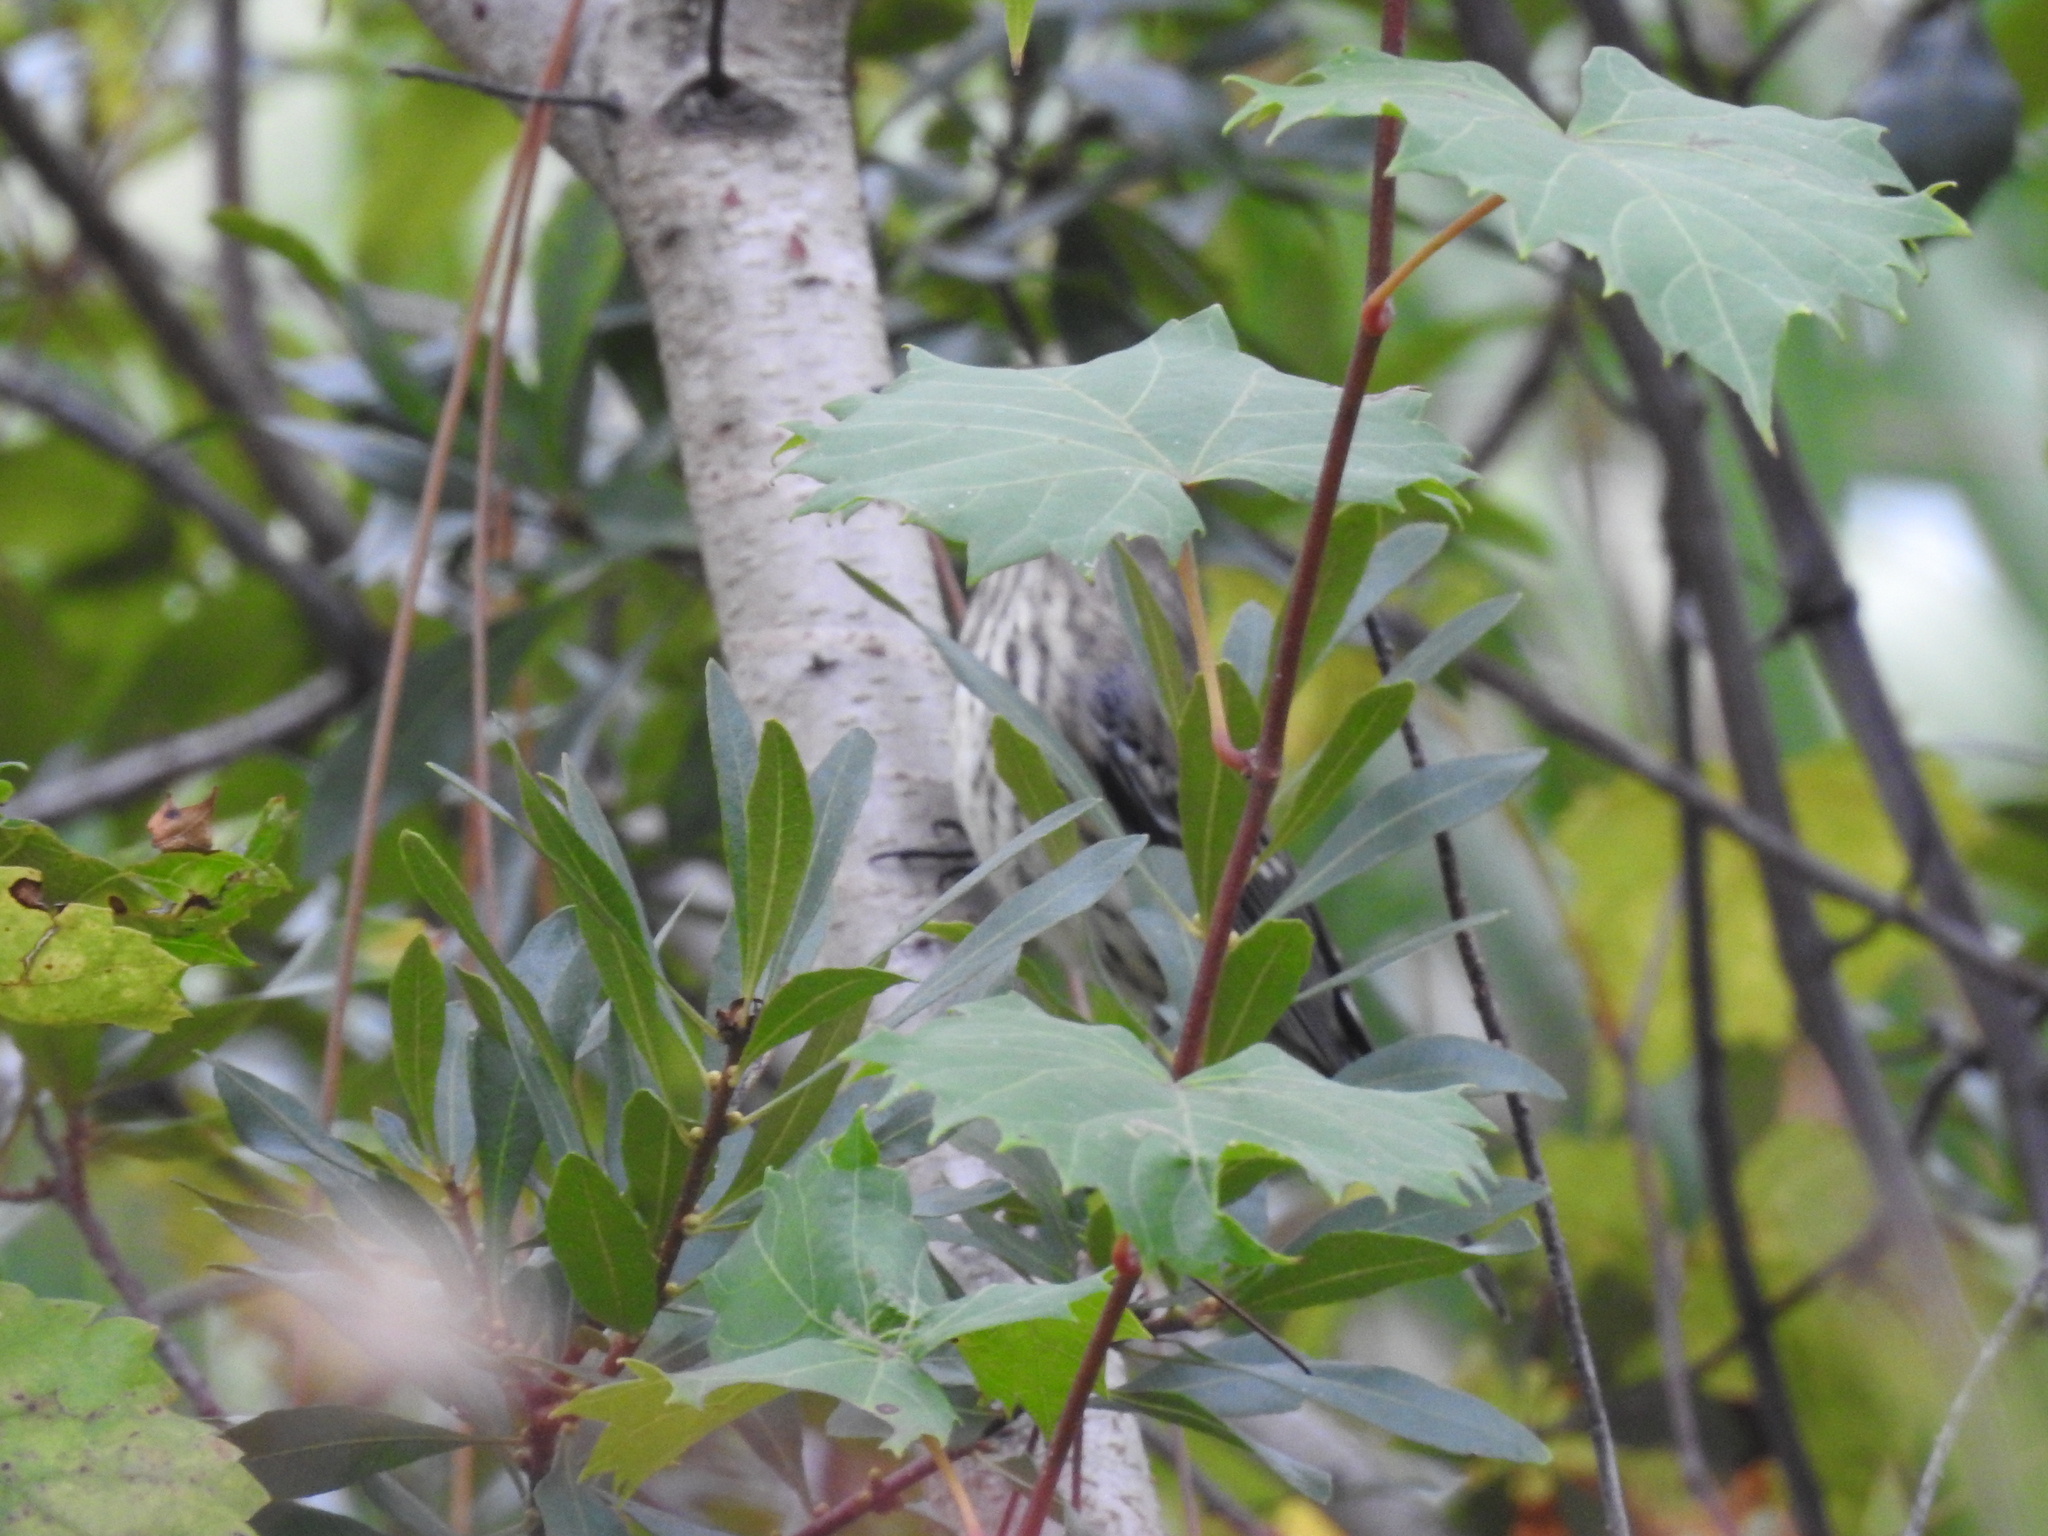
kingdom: Animalia
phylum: Chordata
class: Aves
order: Passeriformes
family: Parulidae
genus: Setophaga
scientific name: Setophaga coronata
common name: Myrtle warbler
